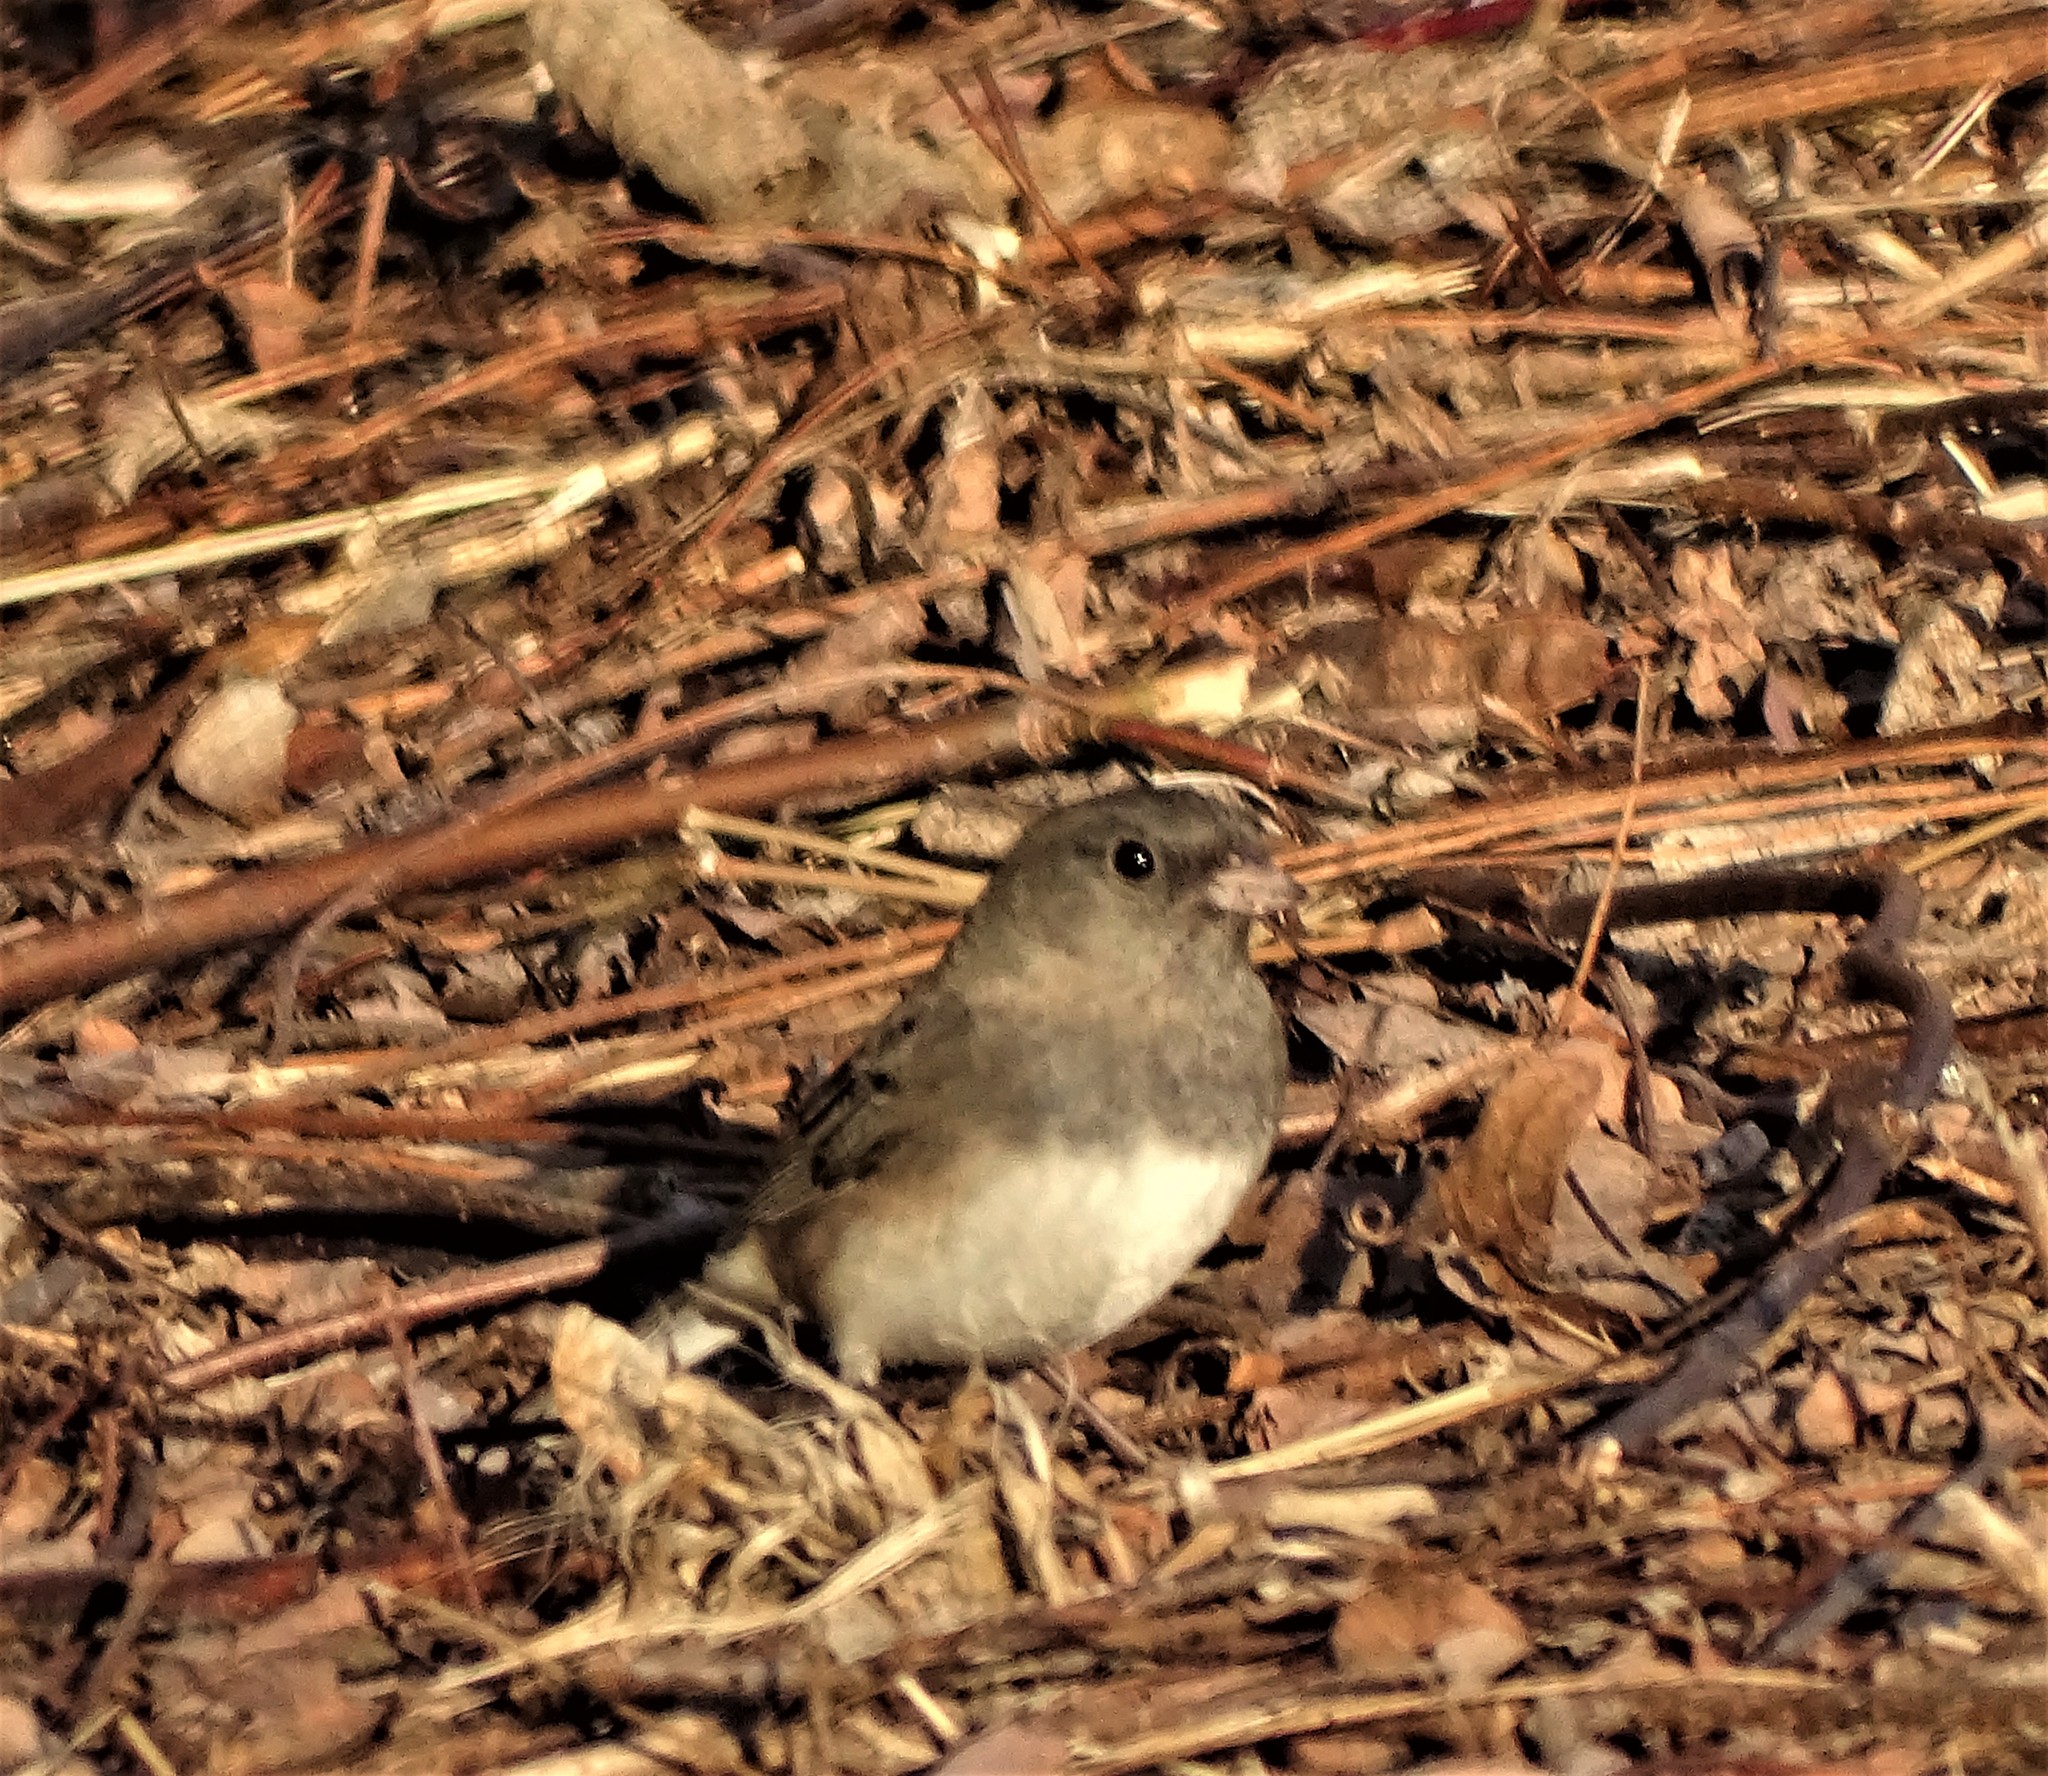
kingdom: Animalia
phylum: Chordata
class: Aves
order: Passeriformes
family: Passerellidae
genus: Junco
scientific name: Junco hyemalis
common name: Dark-eyed junco
